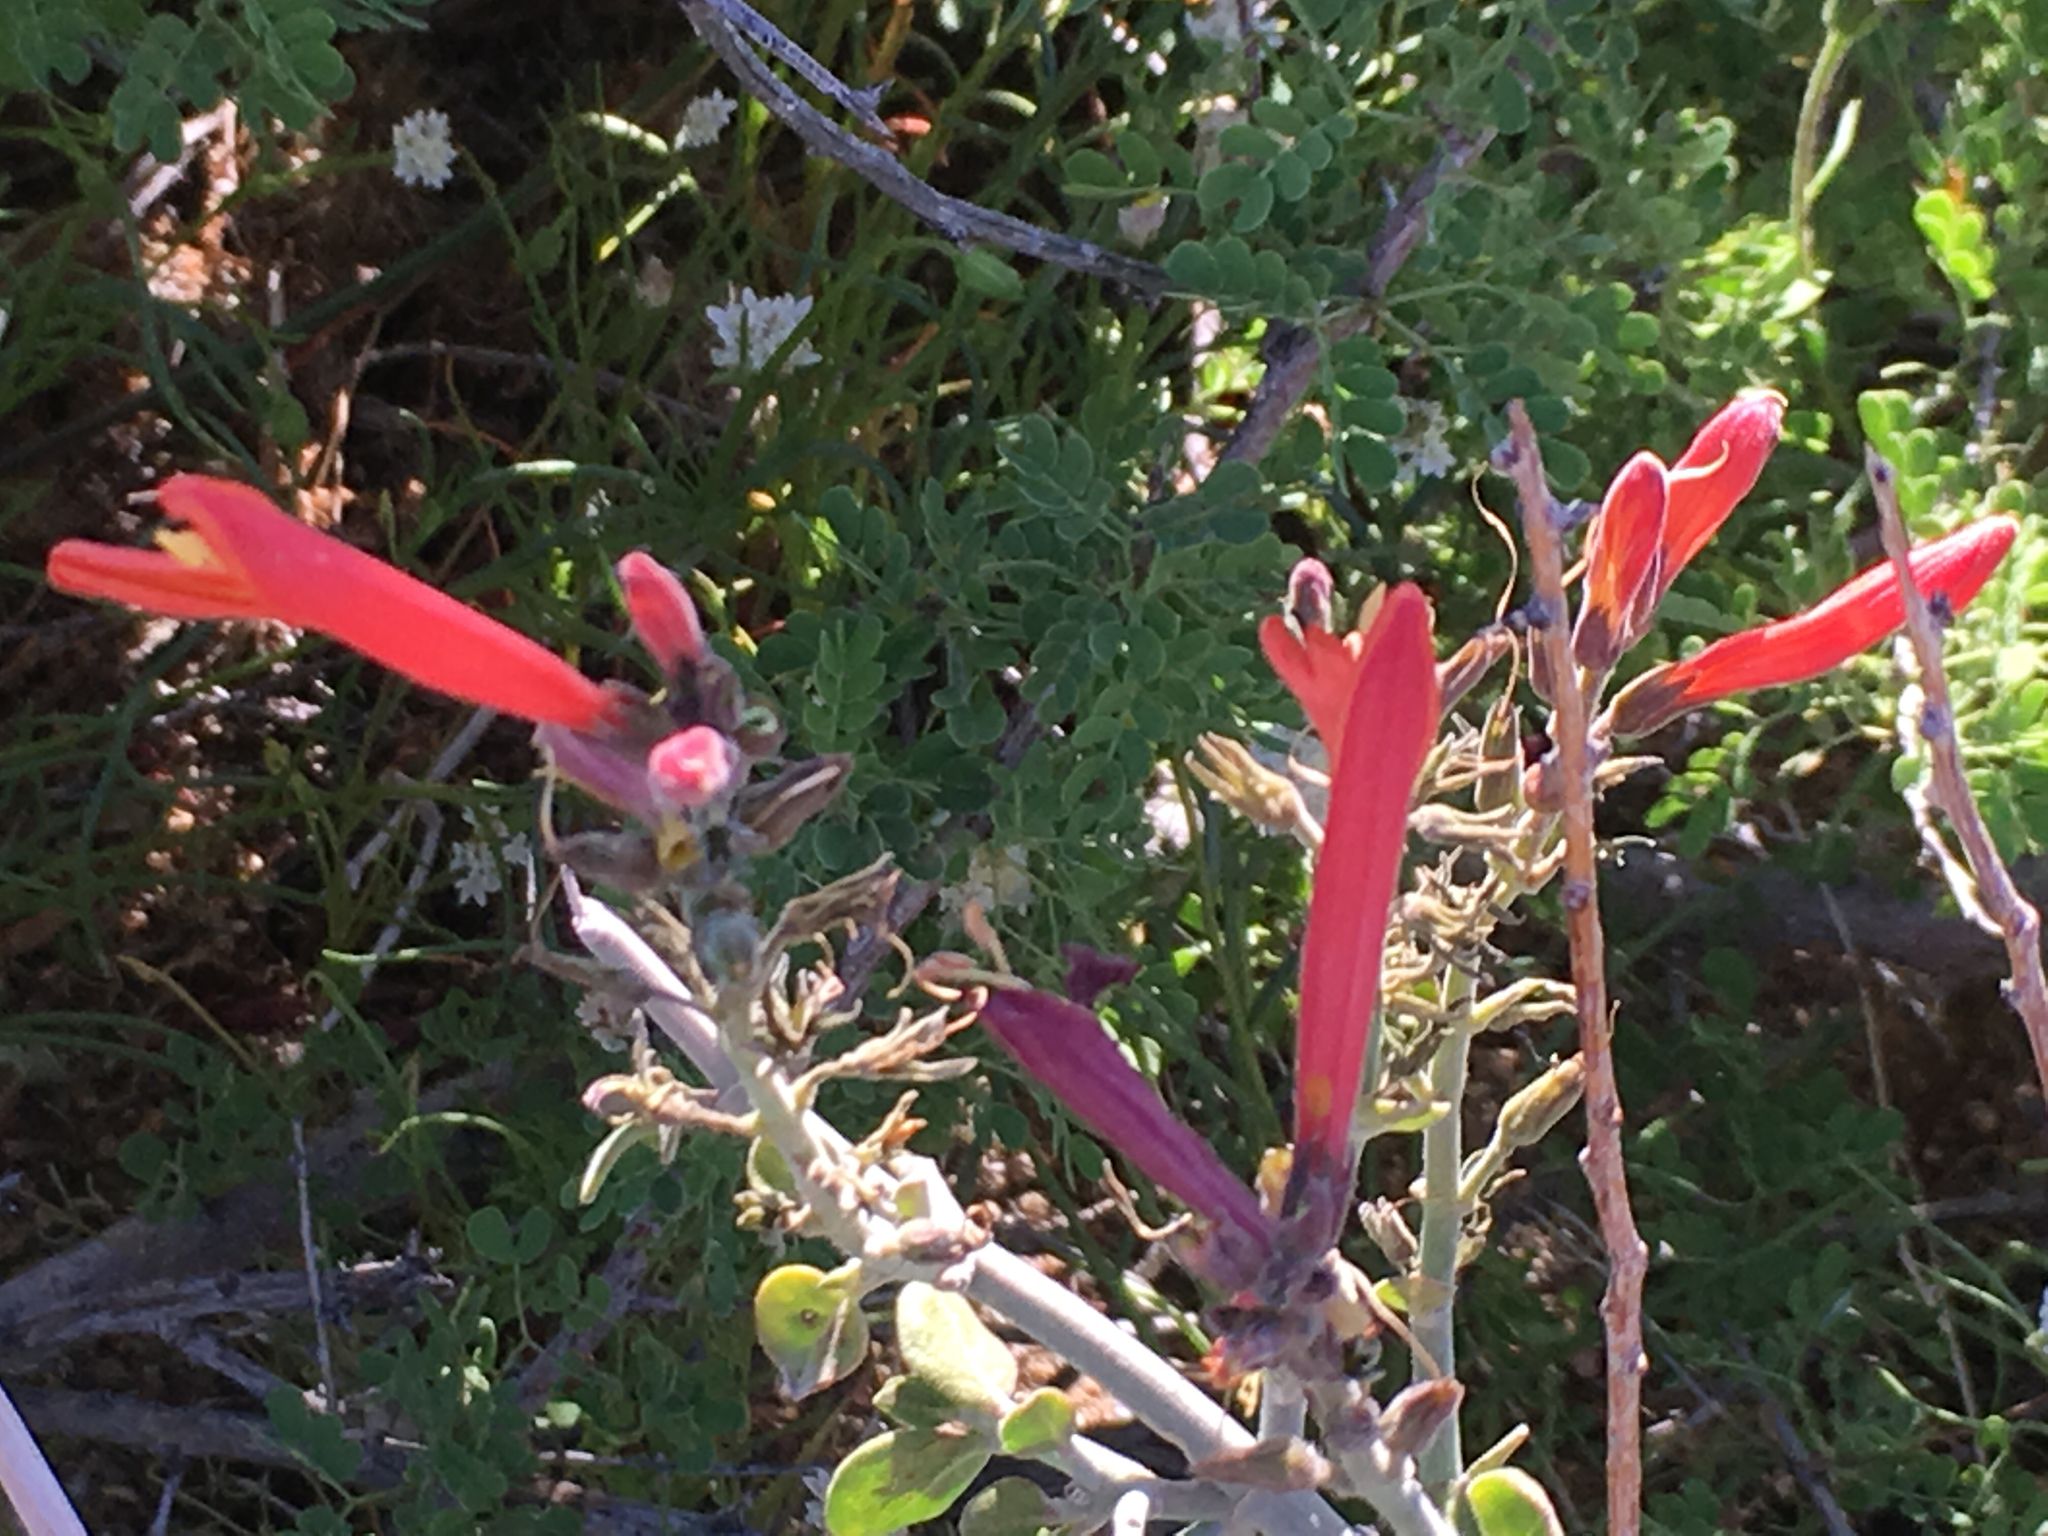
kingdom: Plantae
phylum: Tracheophyta
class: Magnoliopsida
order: Lamiales
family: Acanthaceae
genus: Justicia
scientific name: Justicia californica
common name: Chuparosa-honeysuckle
